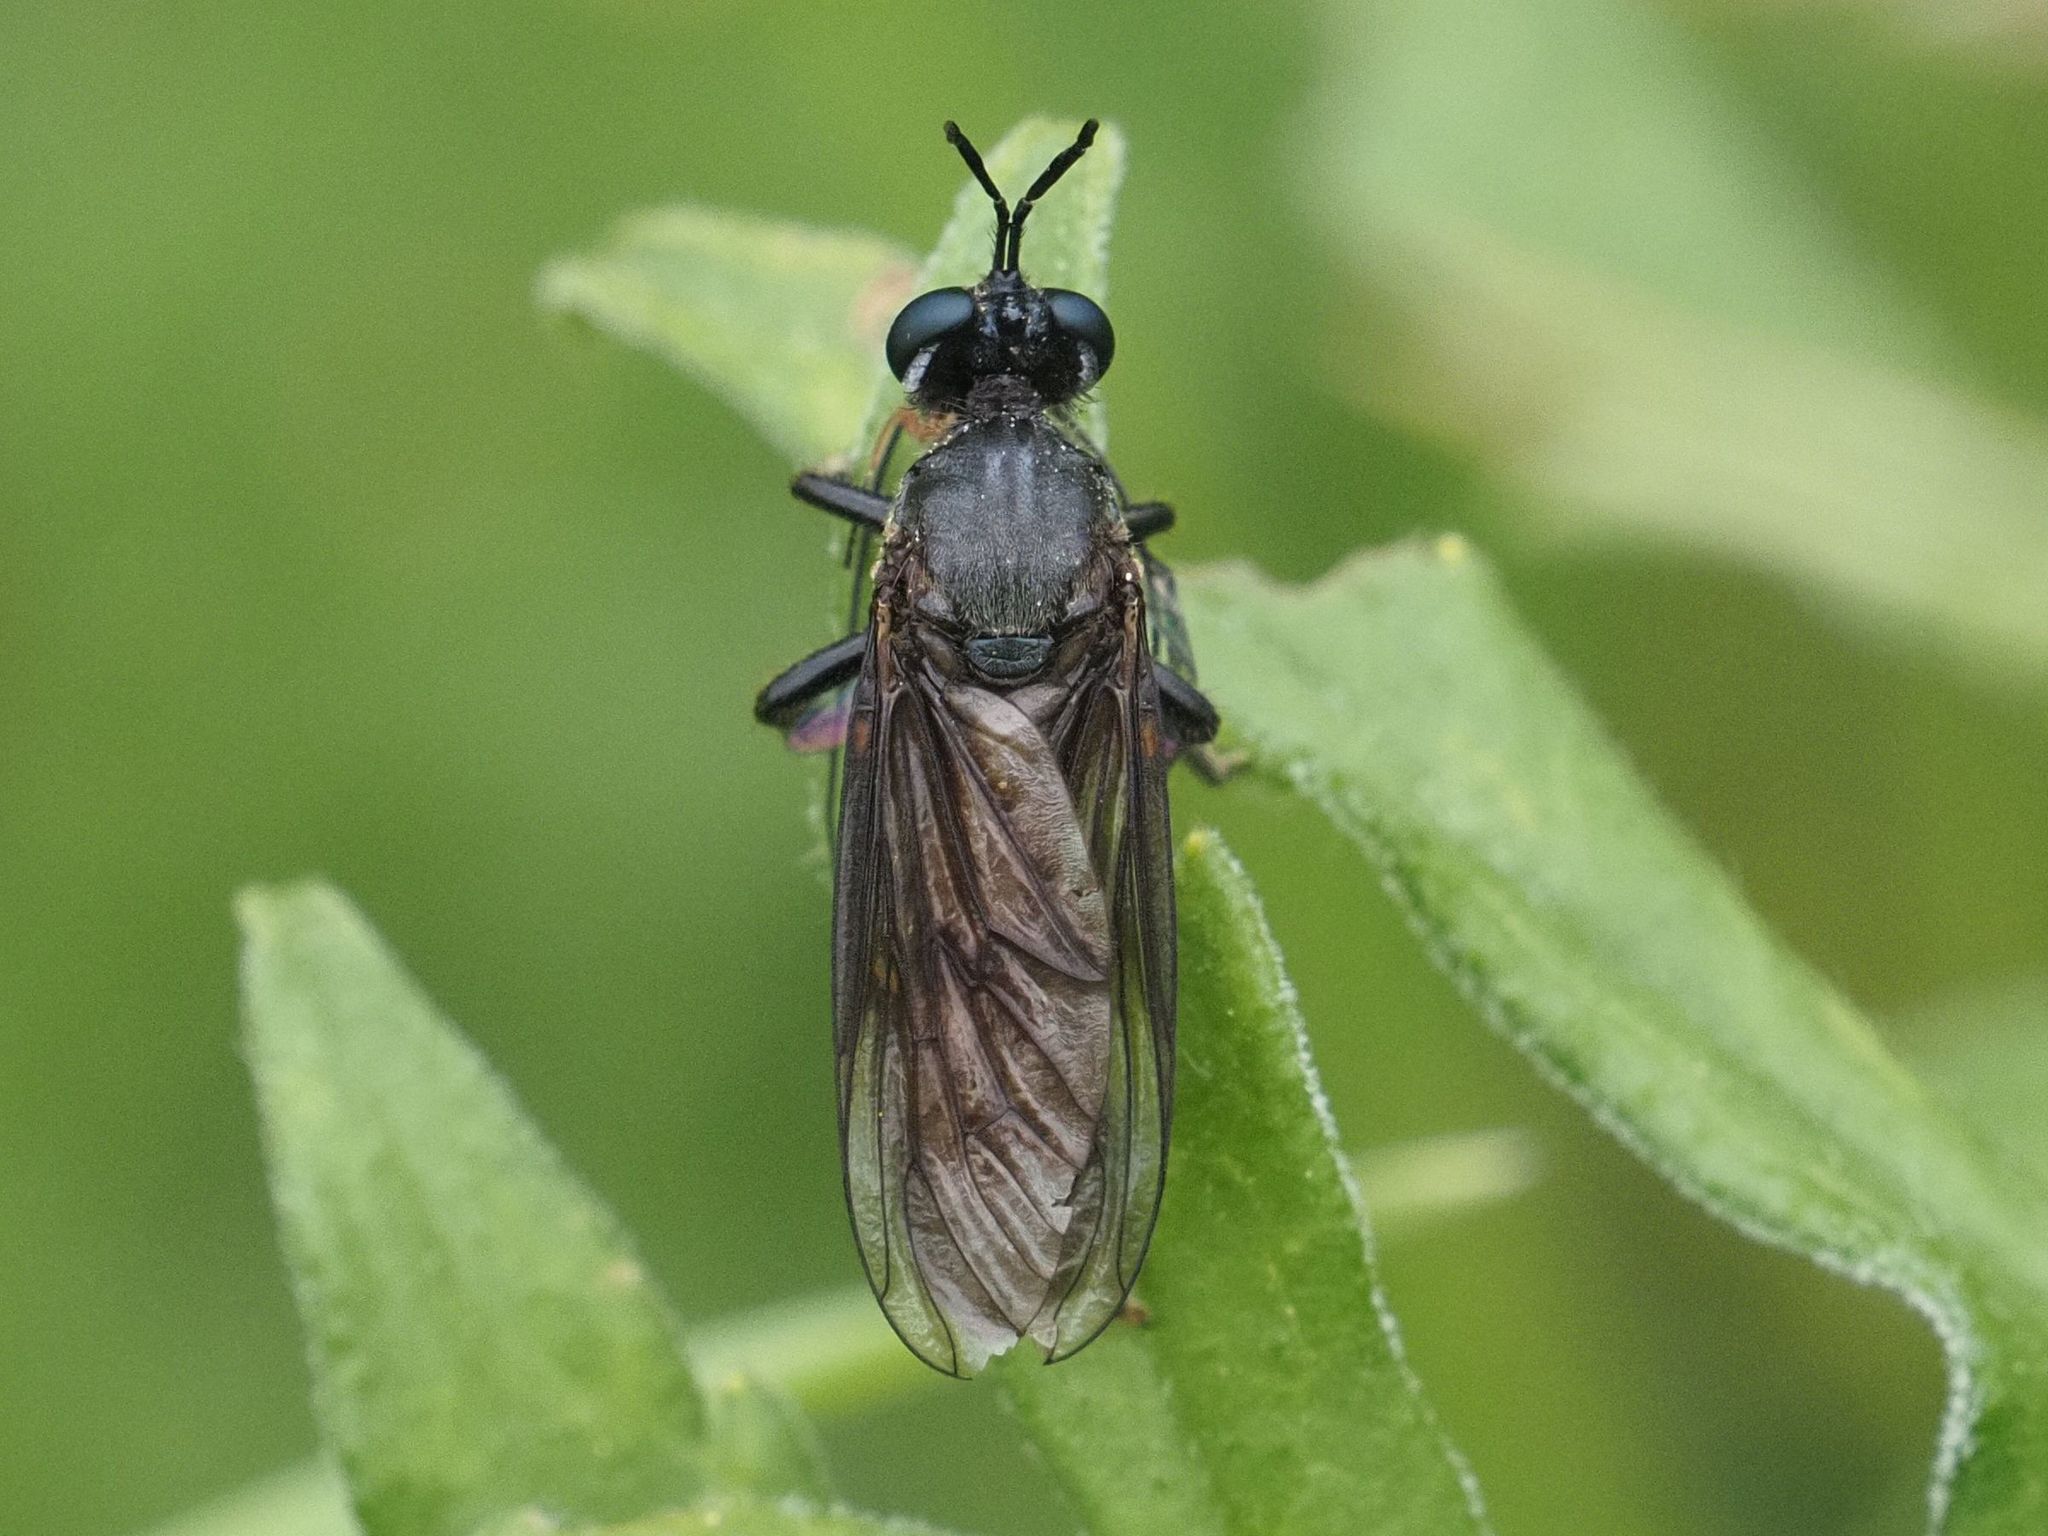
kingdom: Animalia
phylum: Arthropoda
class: Insecta
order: Diptera
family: Asilidae
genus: Dioctria
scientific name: Dioctria atricapilla
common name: Violet black-legged
